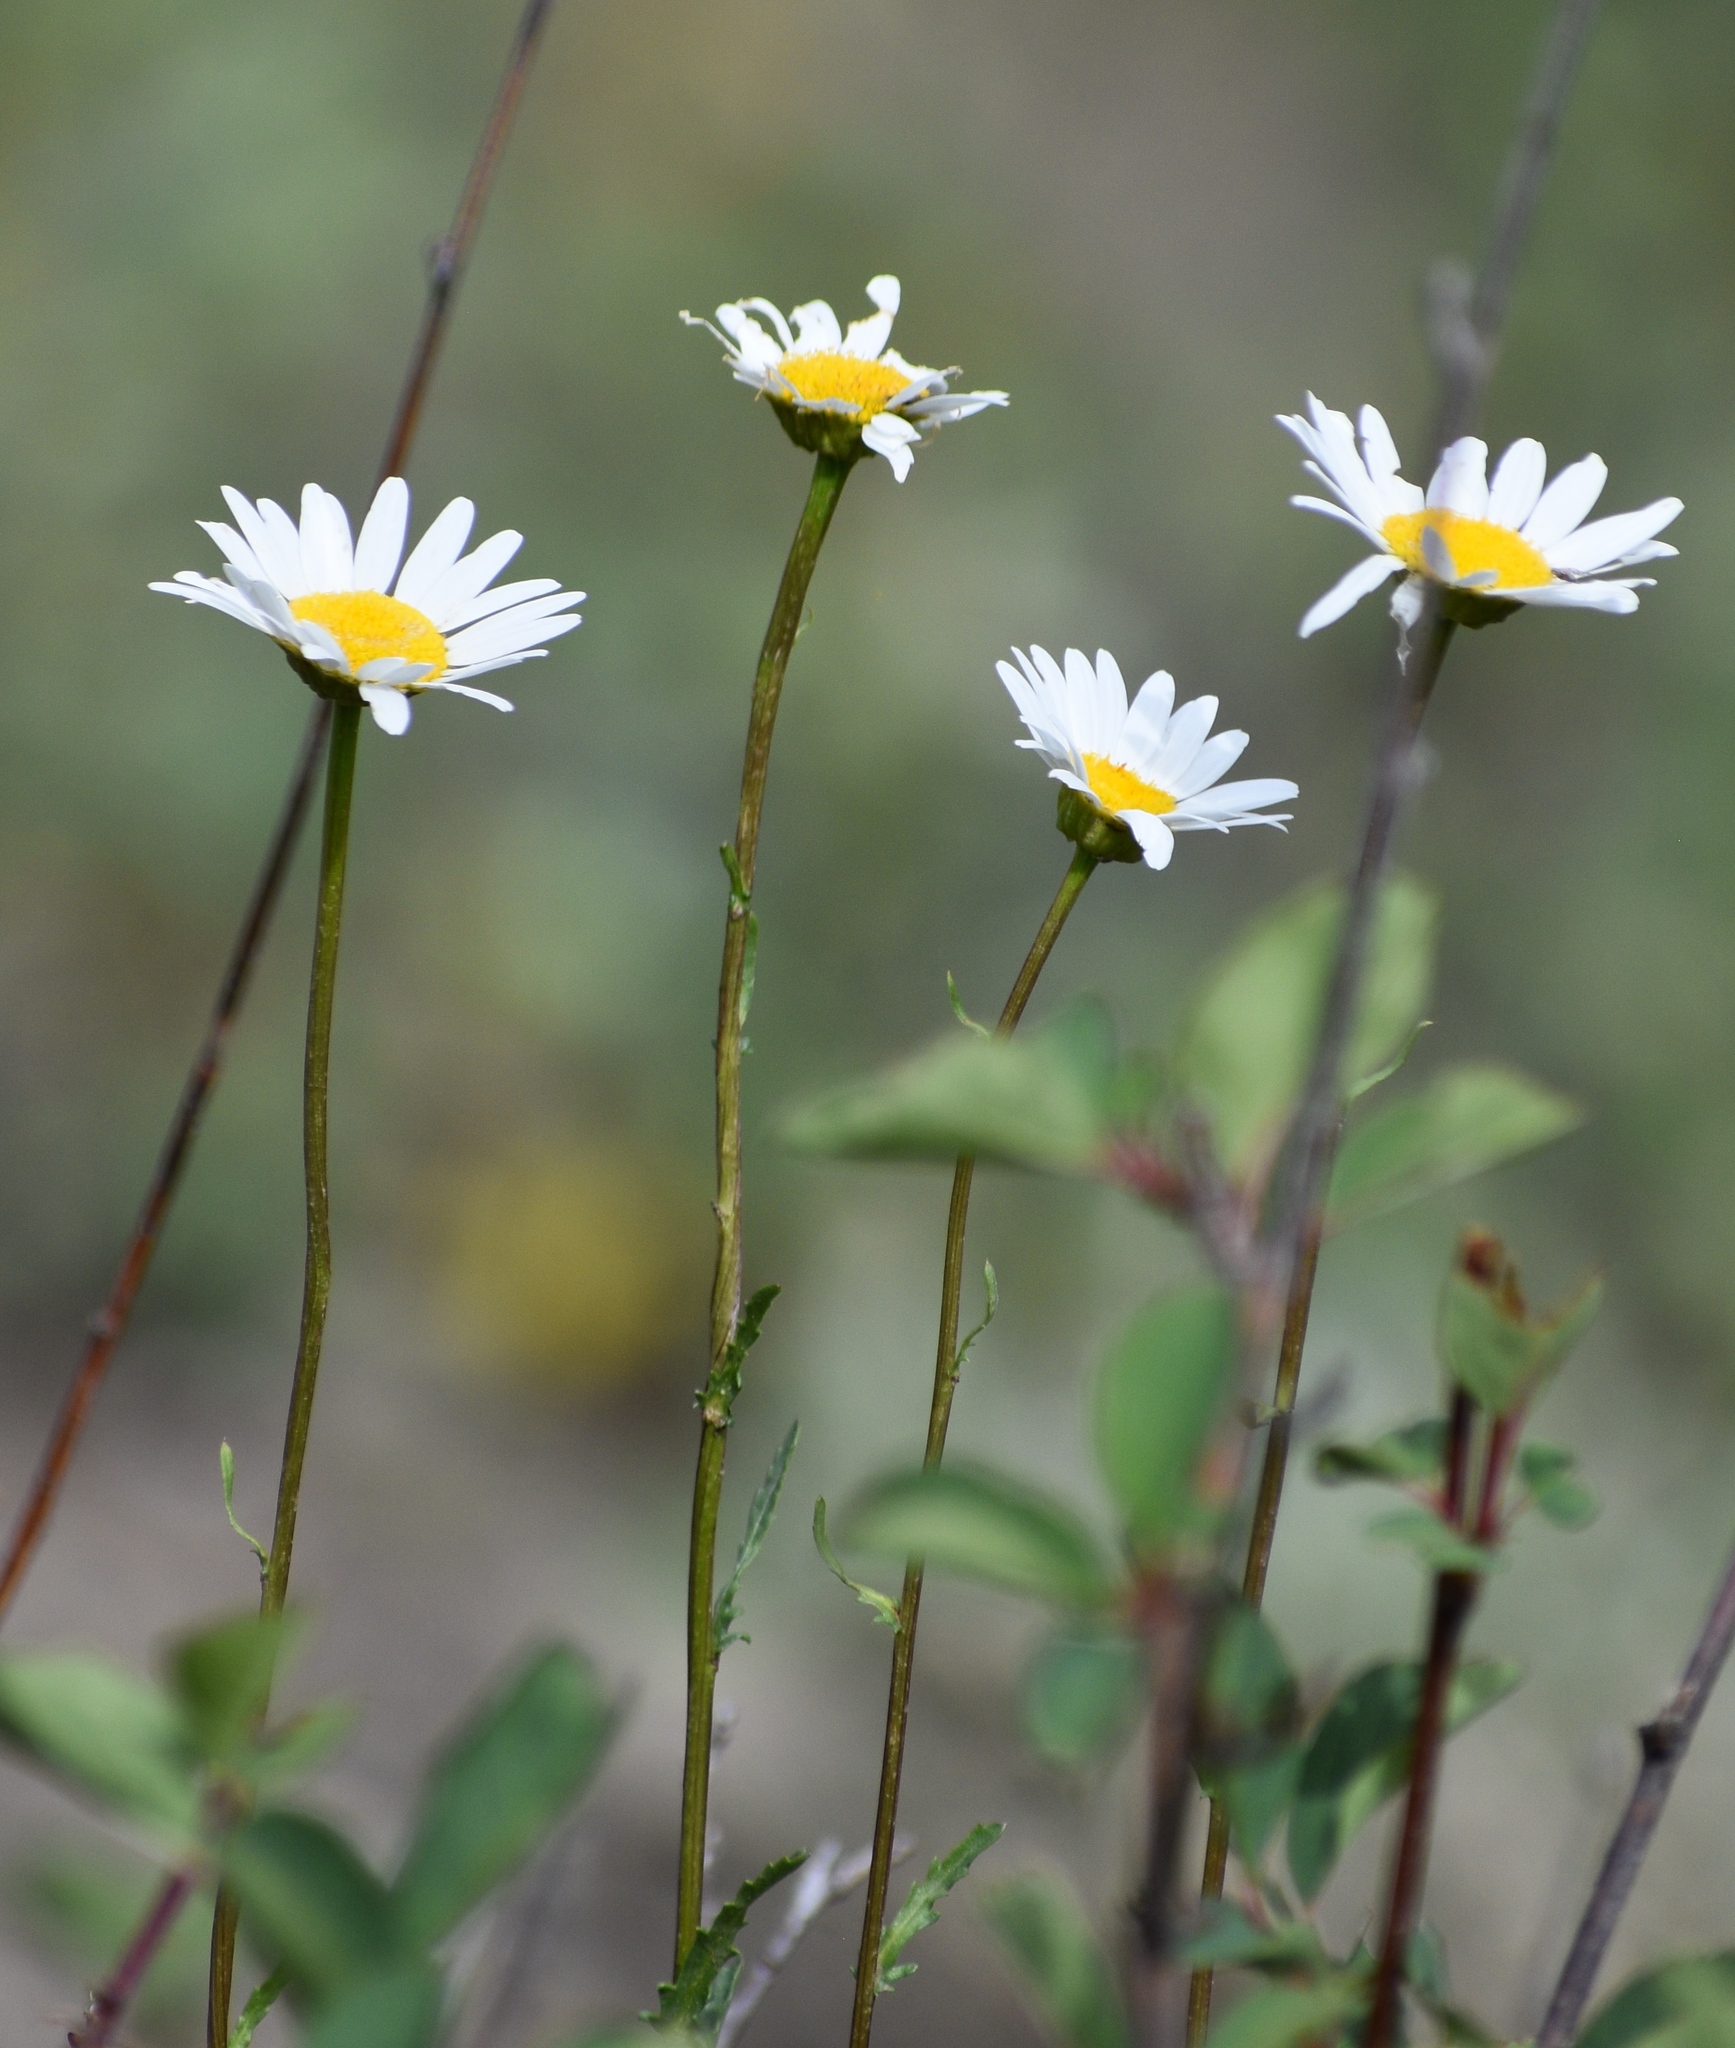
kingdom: Plantae
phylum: Tracheophyta
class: Magnoliopsida
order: Asterales
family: Asteraceae
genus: Leucanthemum
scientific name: Leucanthemum vulgare
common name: Oxeye daisy
